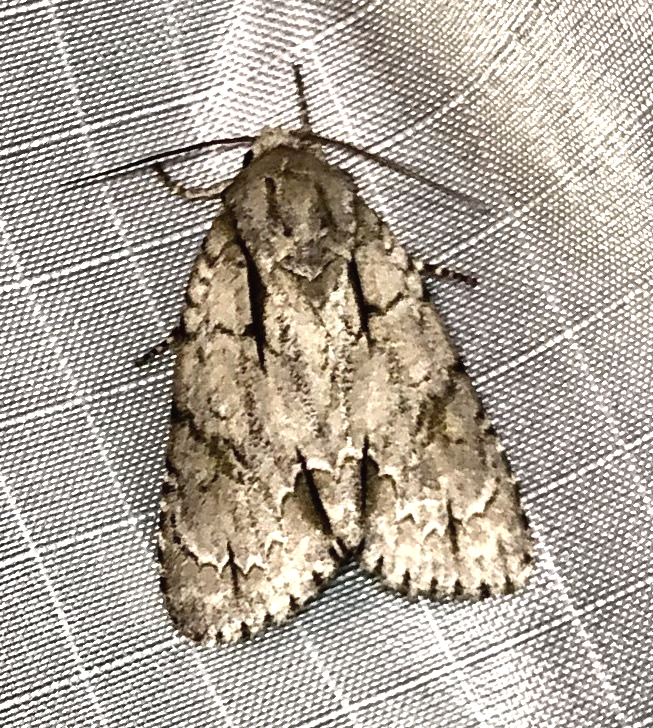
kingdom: Animalia
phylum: Arthropoda
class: Insecta
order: Lepidoptera
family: Noctuidae
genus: Acronicta
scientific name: Acronicta interrupta
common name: Interrupted dagger
